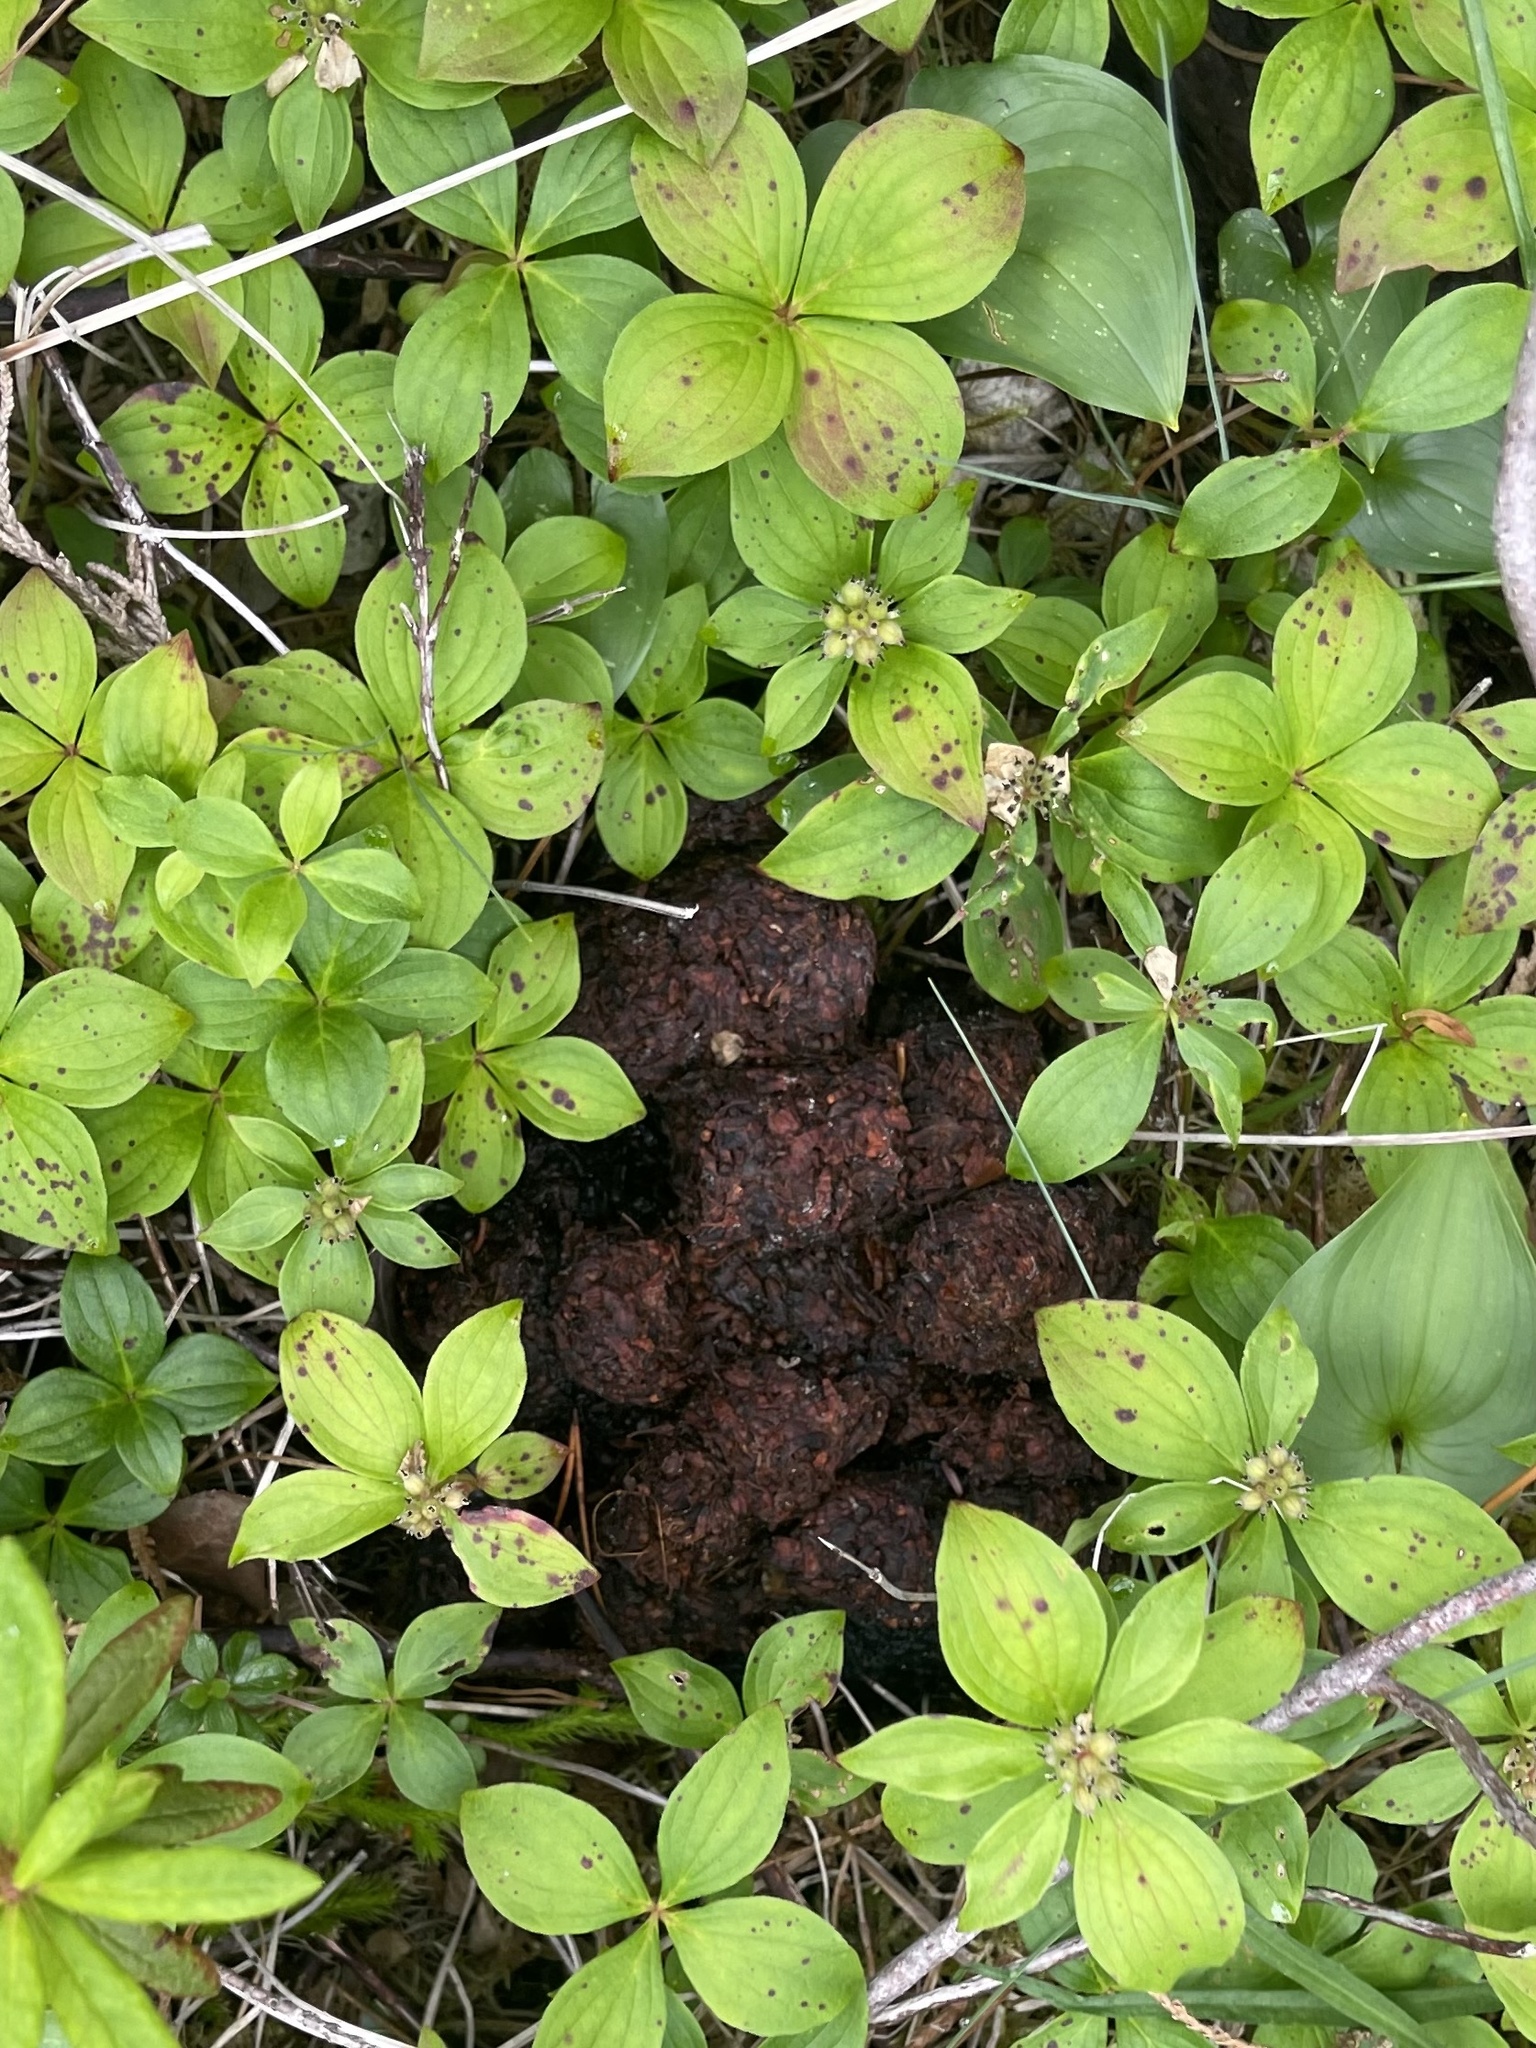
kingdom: Animalia
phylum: Chordata
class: Mammalia
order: Carnivora
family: Ursidae
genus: Ursus
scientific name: Ursus americanus
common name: American black bear
